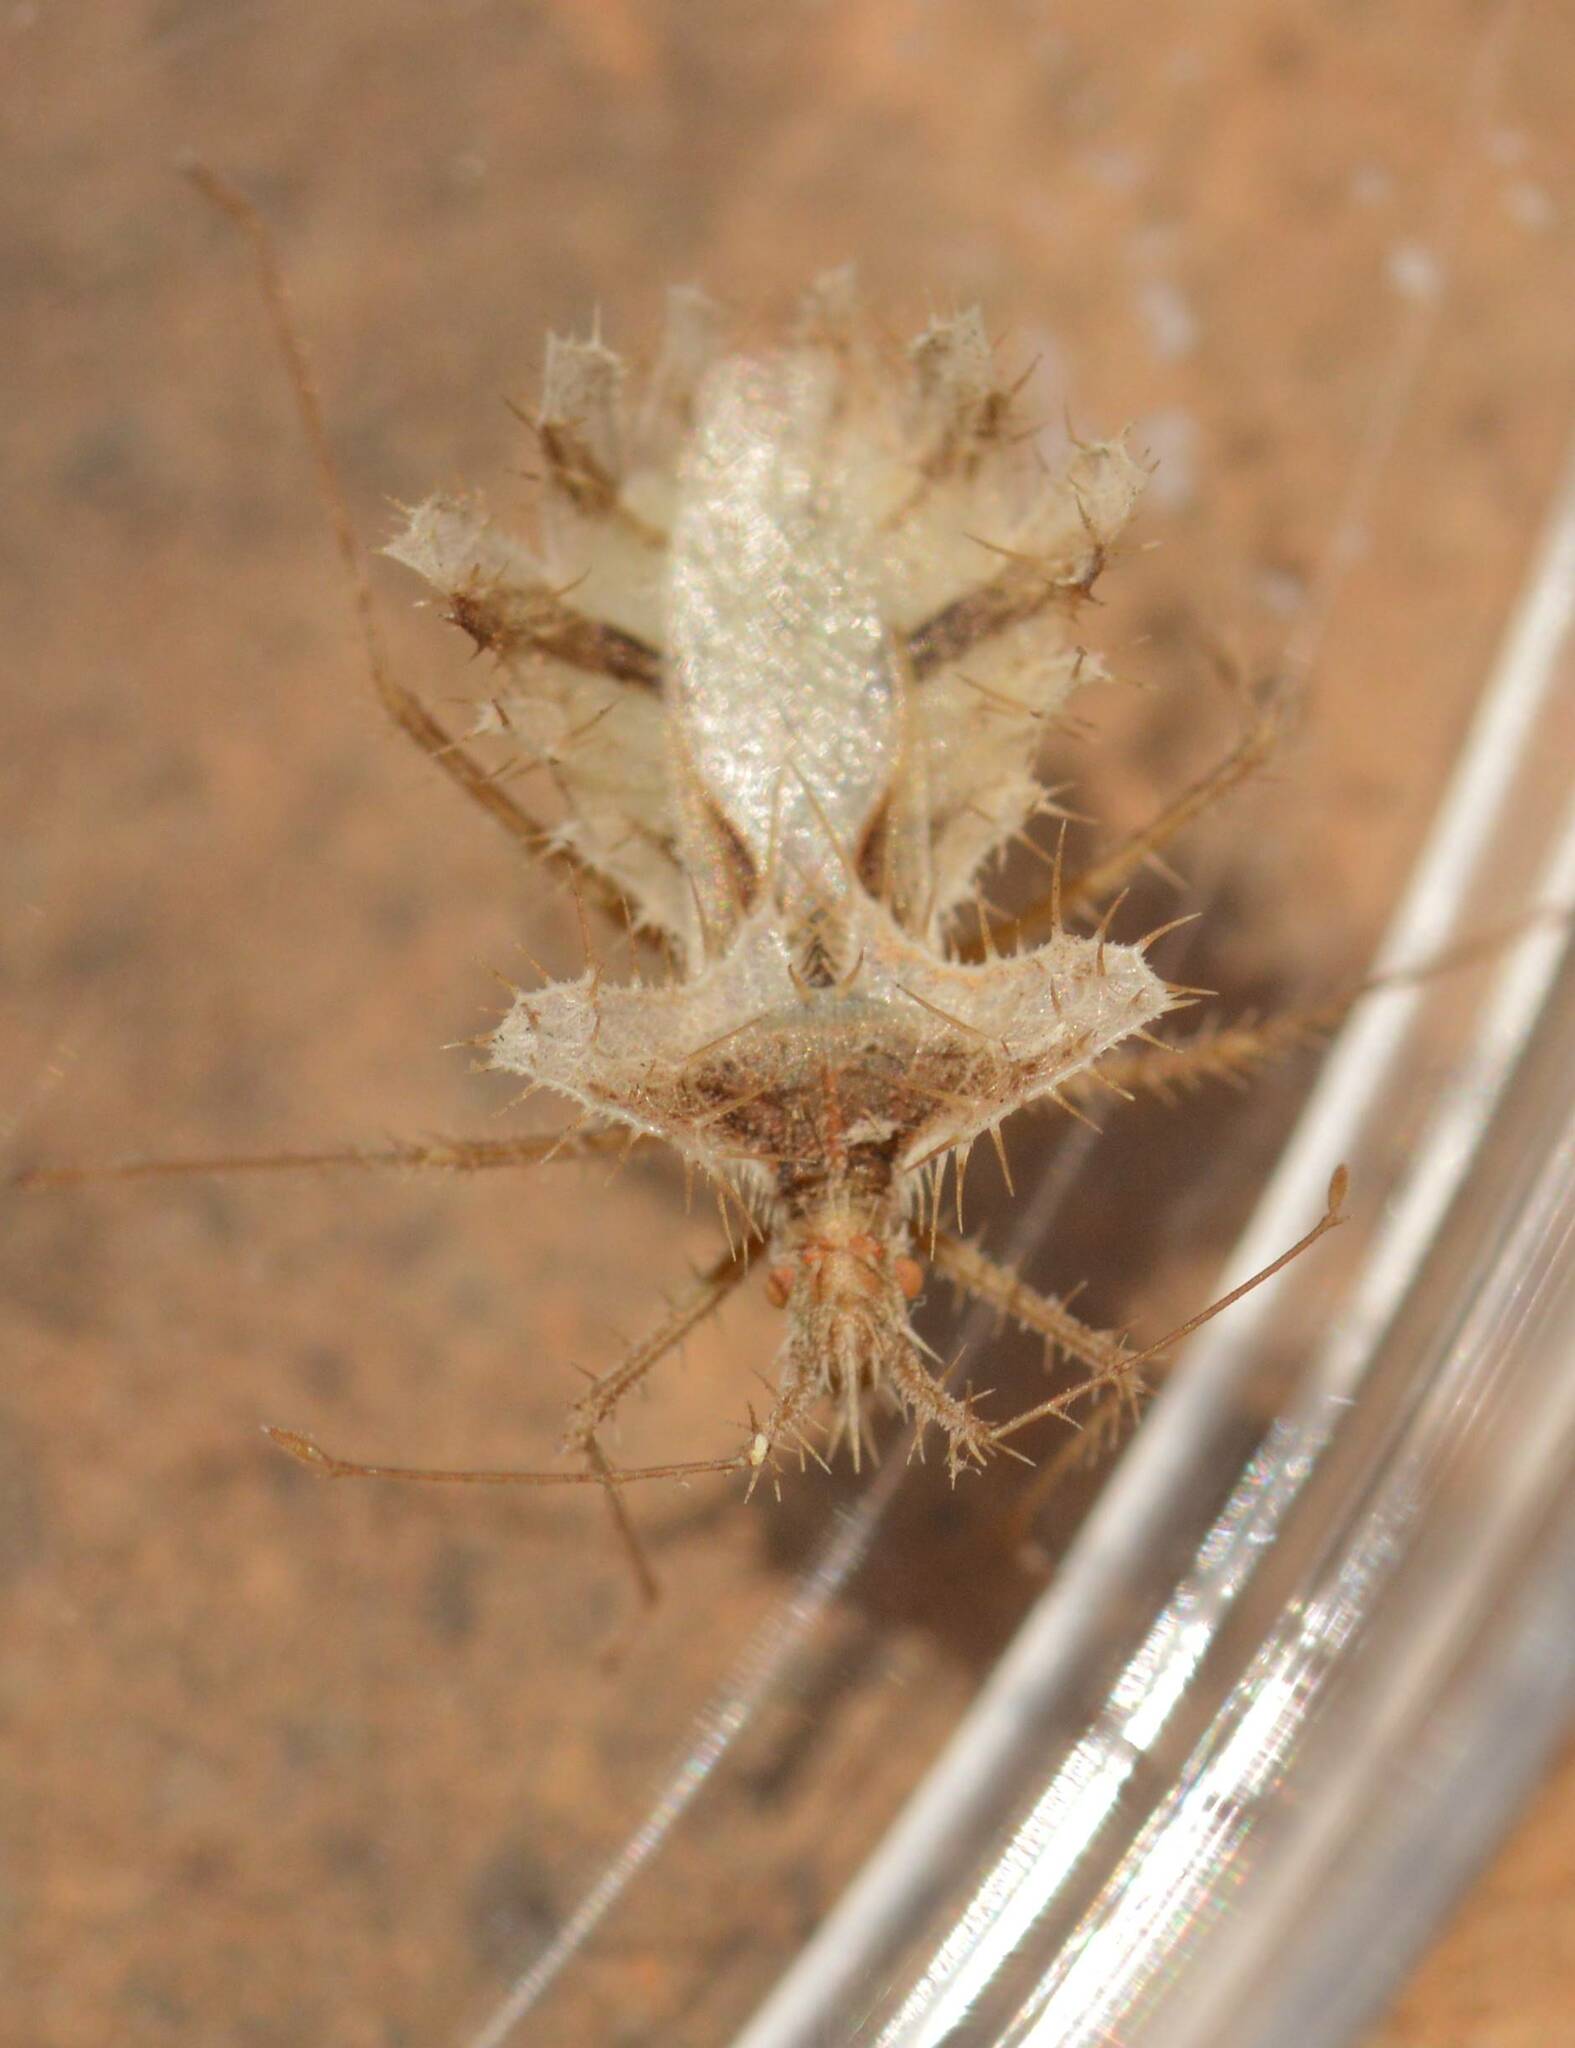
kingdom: Animalia
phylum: Arthropoda
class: Insecta
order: Hemiptera
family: Coreidae
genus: Phyllomorpha
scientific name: Phyllomorpha laciniata
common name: Golden egg bug
